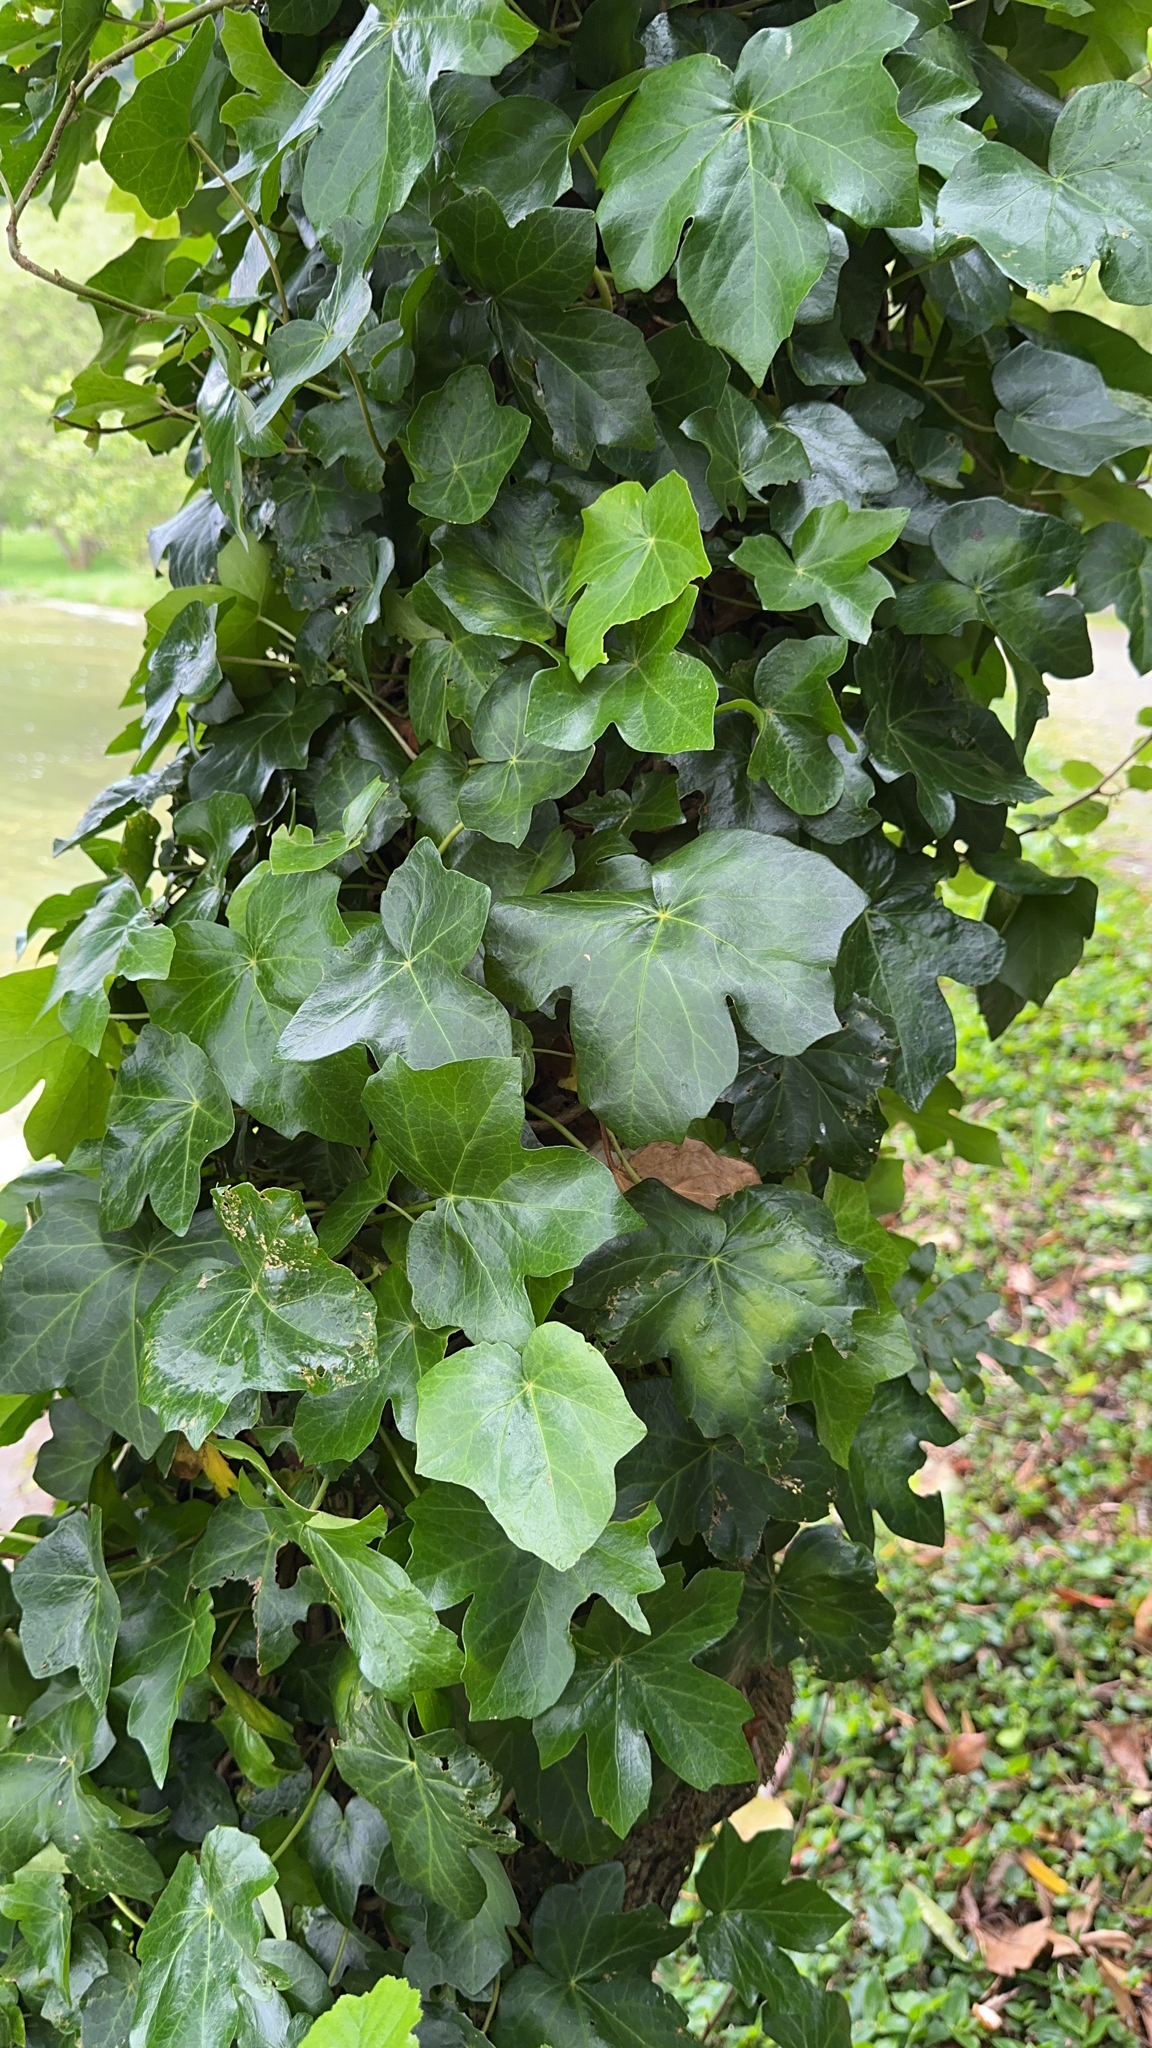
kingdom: Plantae
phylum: Tracheophyta
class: Magnoliopsida
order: Apiales
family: Araliaceae
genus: Hedera
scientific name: Hedera azorica
